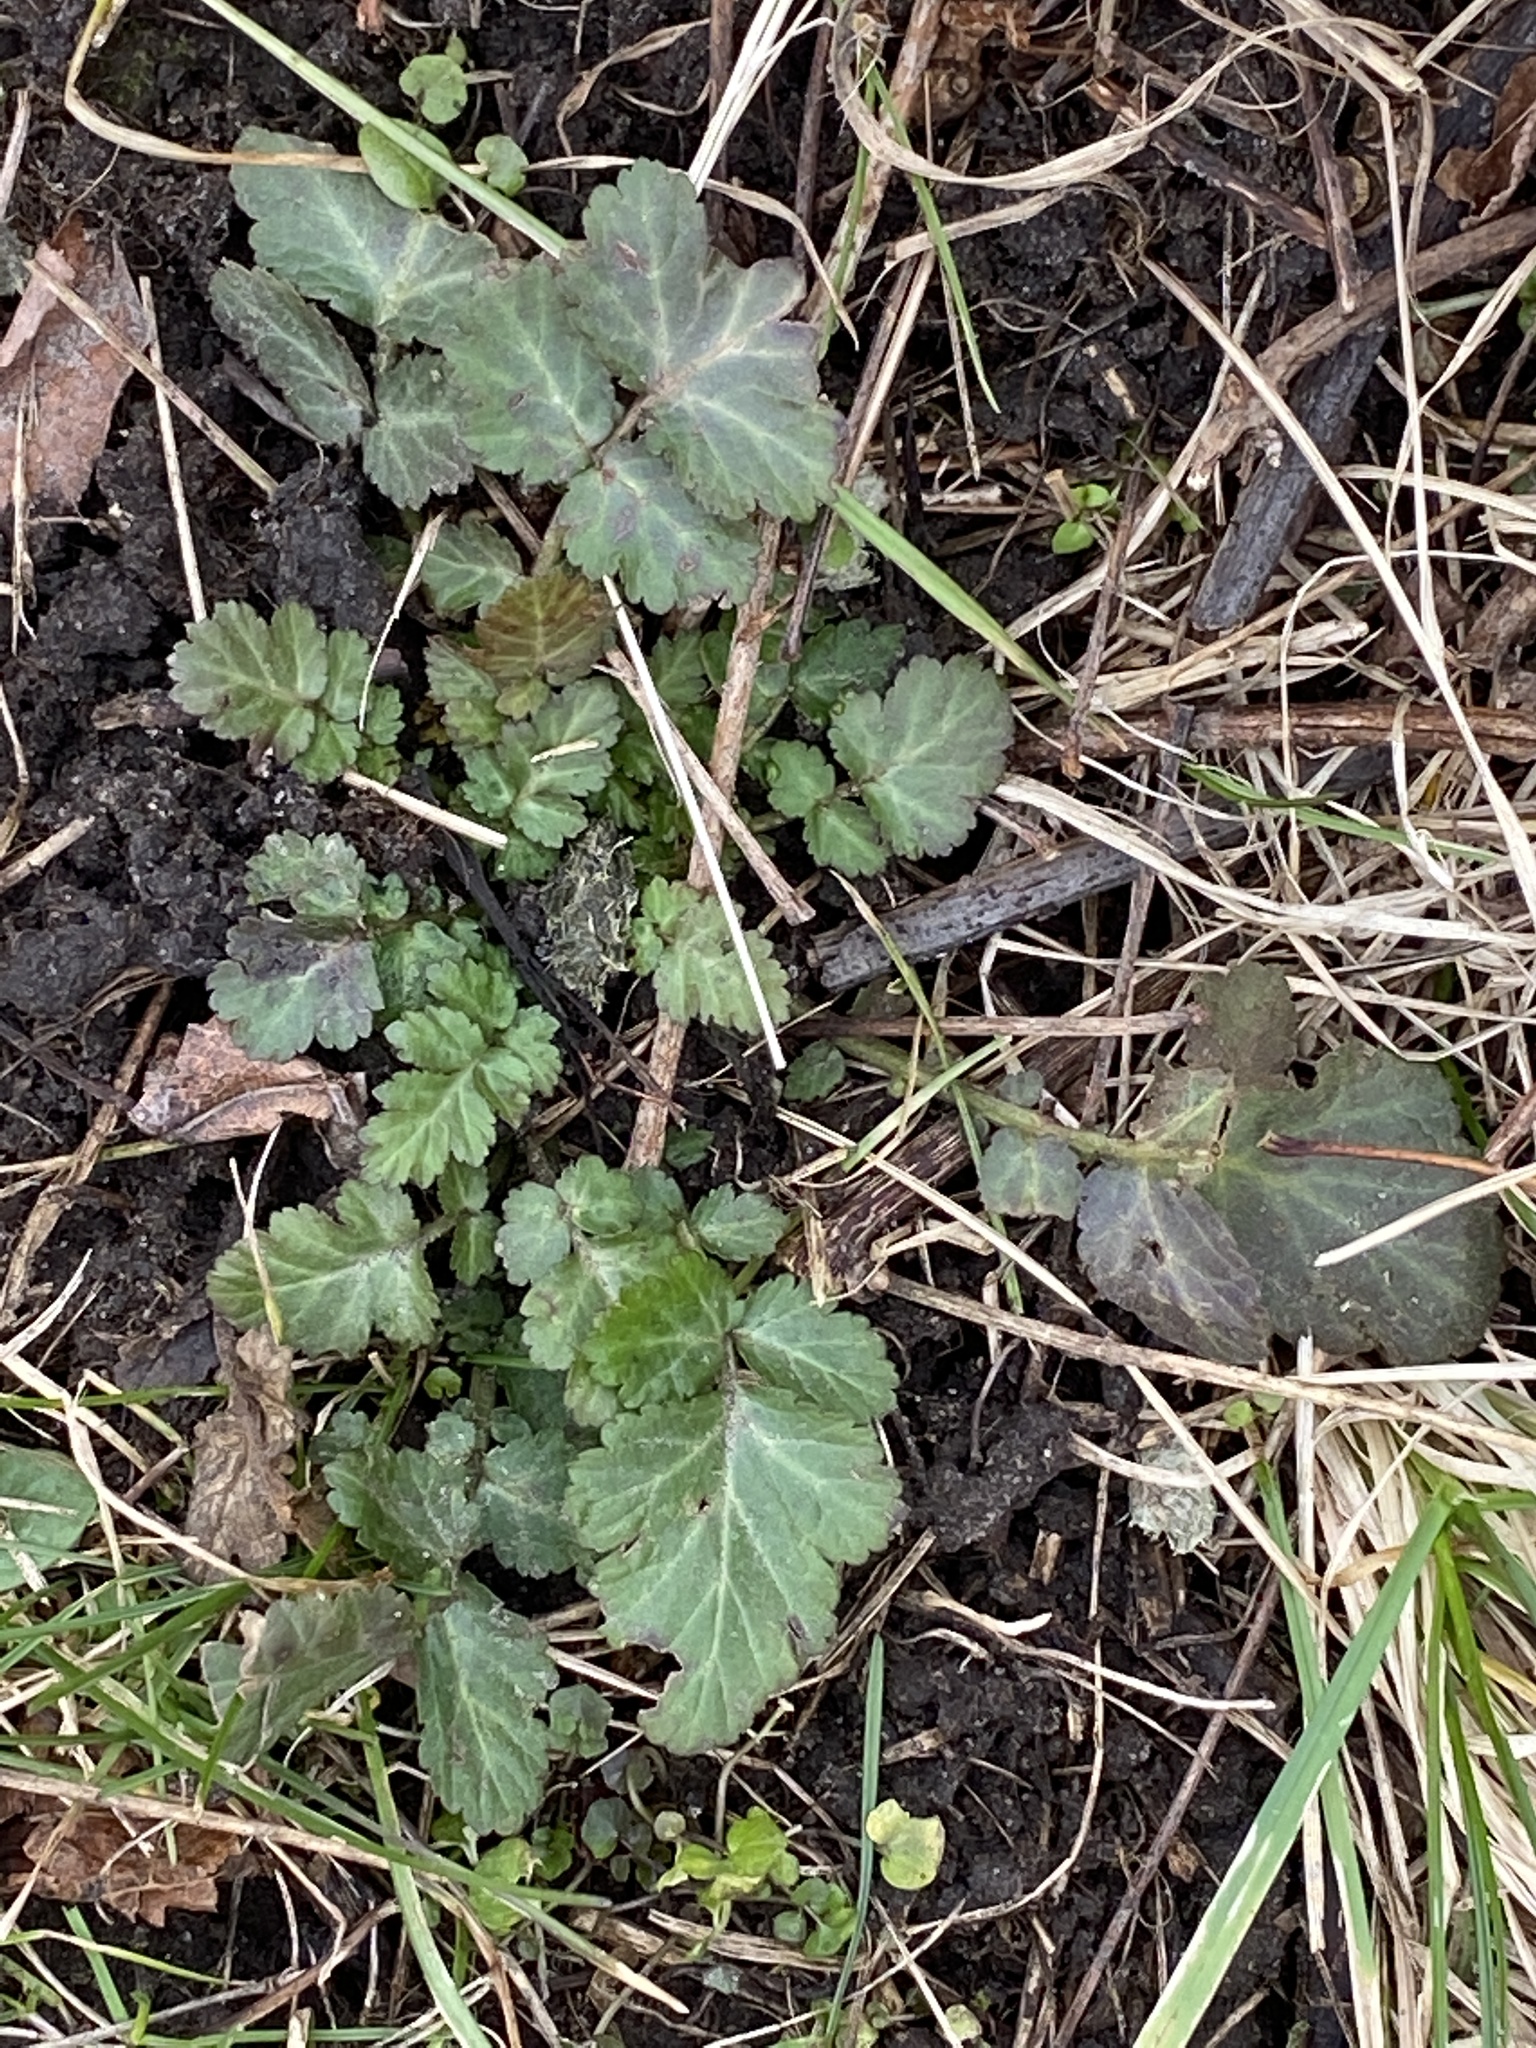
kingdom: Plantae
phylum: Tracheophyta
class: Magnoliopsida
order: Rosales
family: Rosaceae
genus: Geum
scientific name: Geum canadense
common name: White avens
